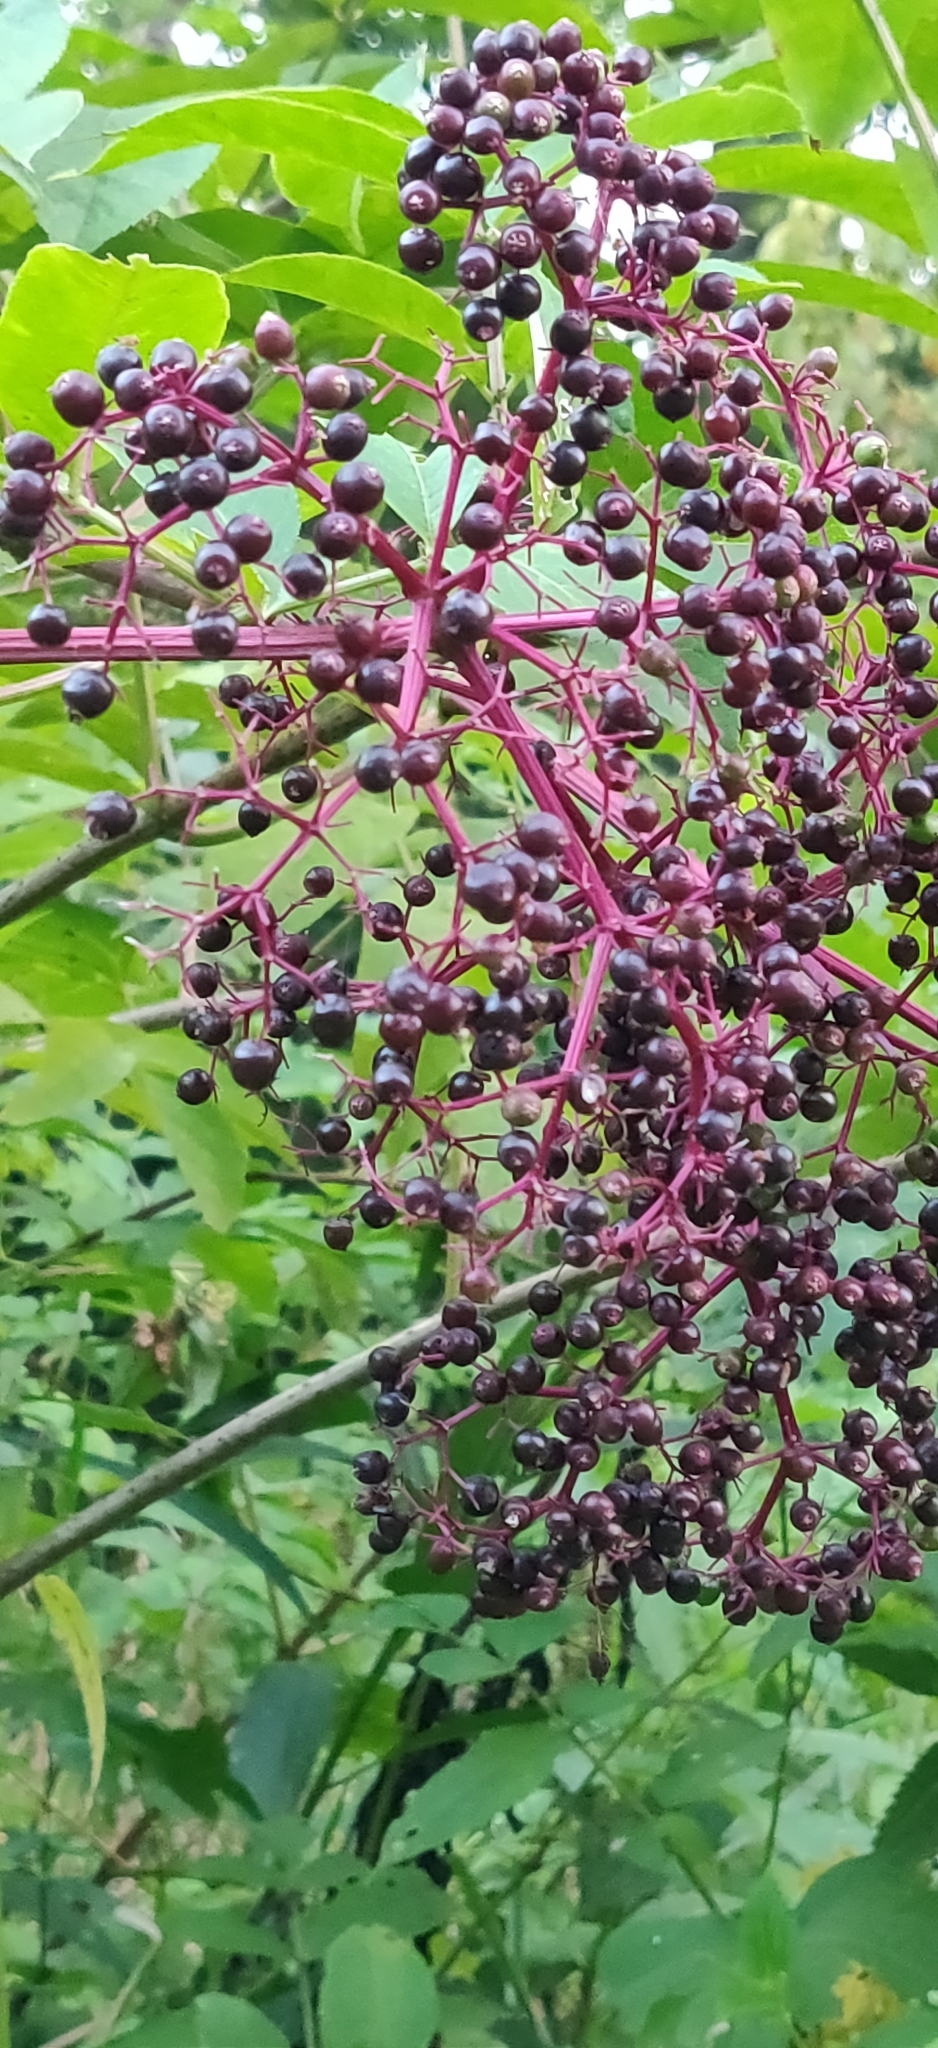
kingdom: Plantae
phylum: Tracheophyta
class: Magnoliopsida
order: Dipsacales
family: Viburnaceae
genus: Sambucus
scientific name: Sambucus canadensis
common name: American elder
